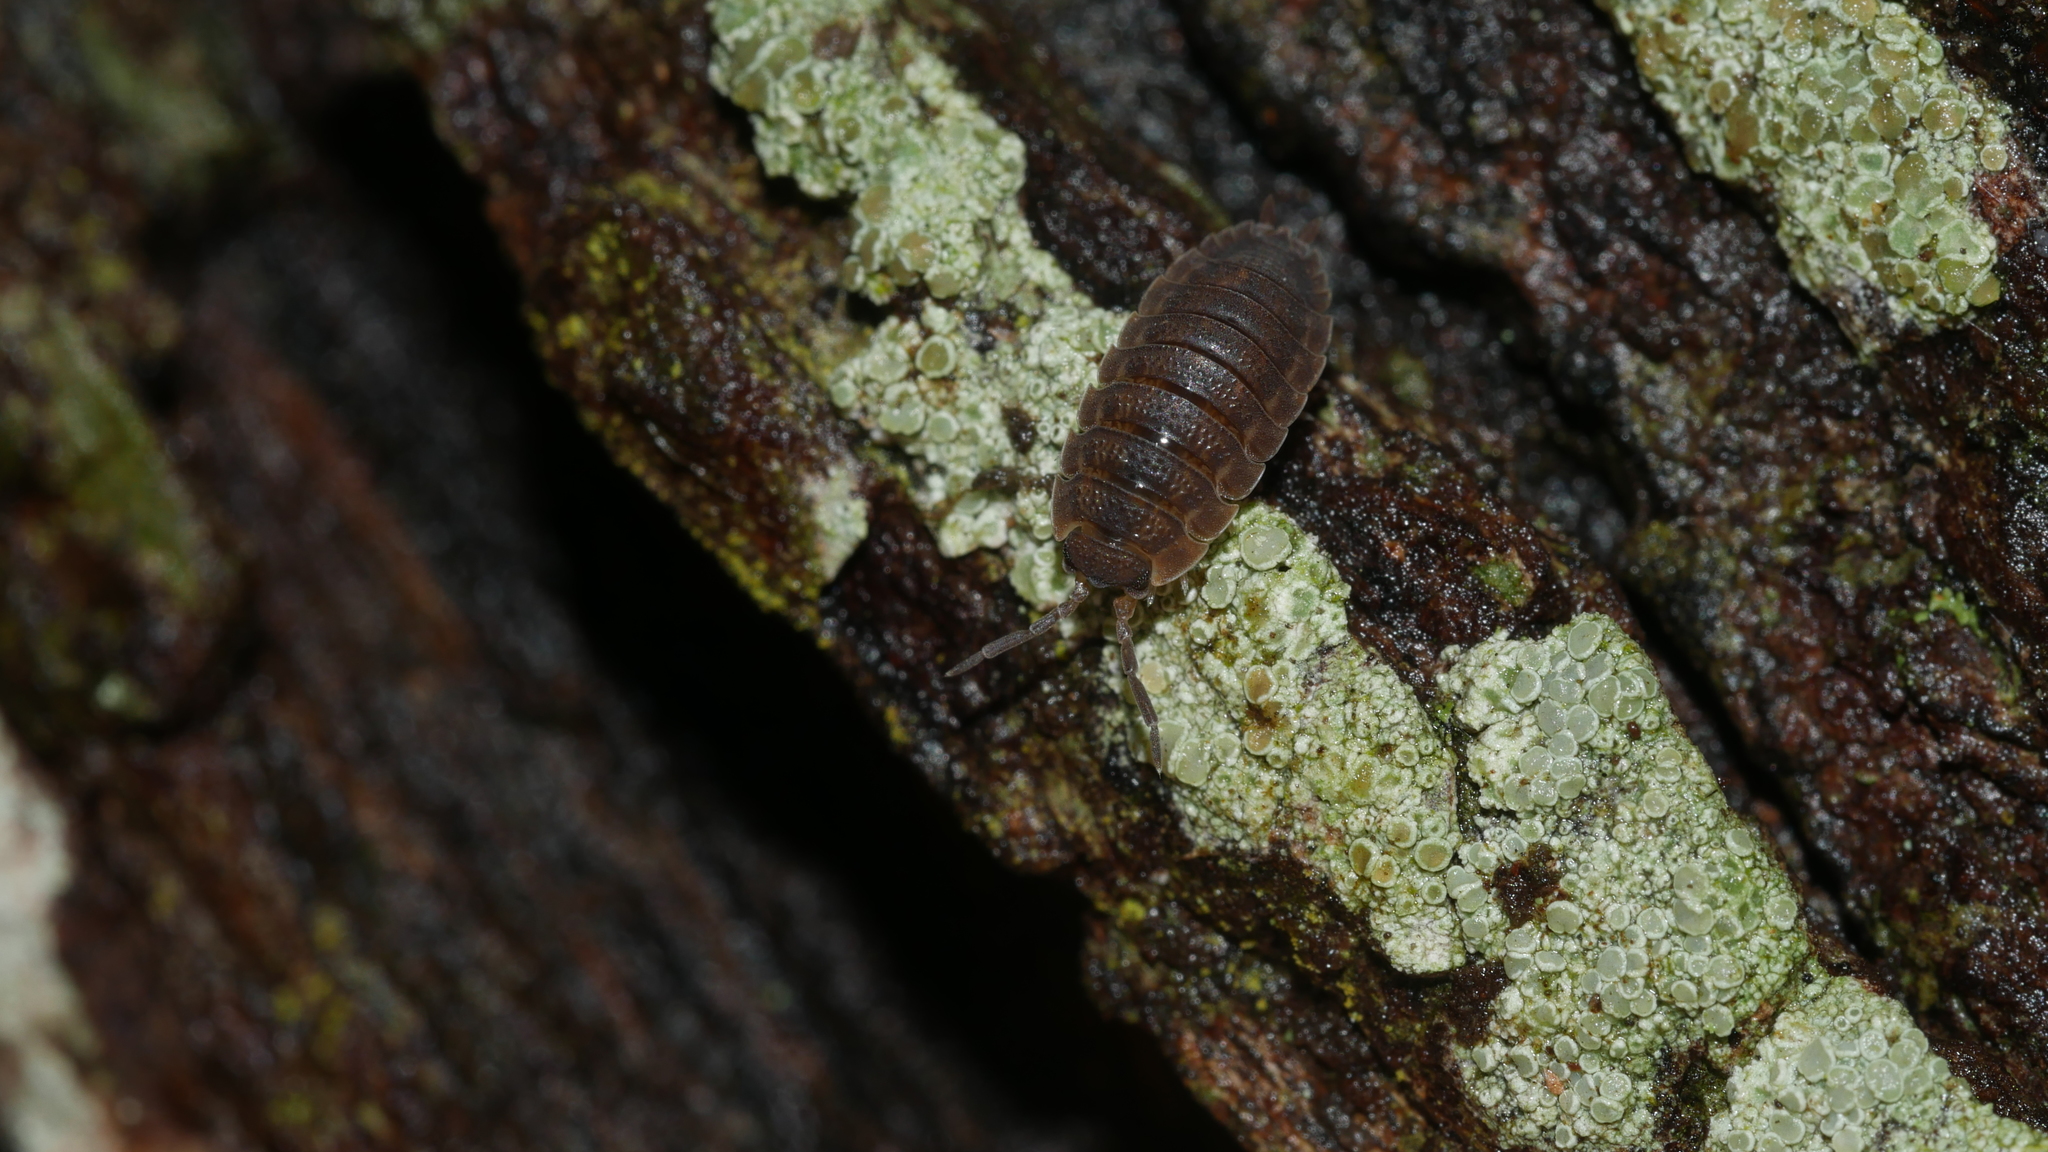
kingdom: Animalia
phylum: Arthropoda
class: Malacostraca
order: Isopoda
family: Porcellionidae
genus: Porcellio
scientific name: Porcellio scaber
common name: Common rough woodlouse
